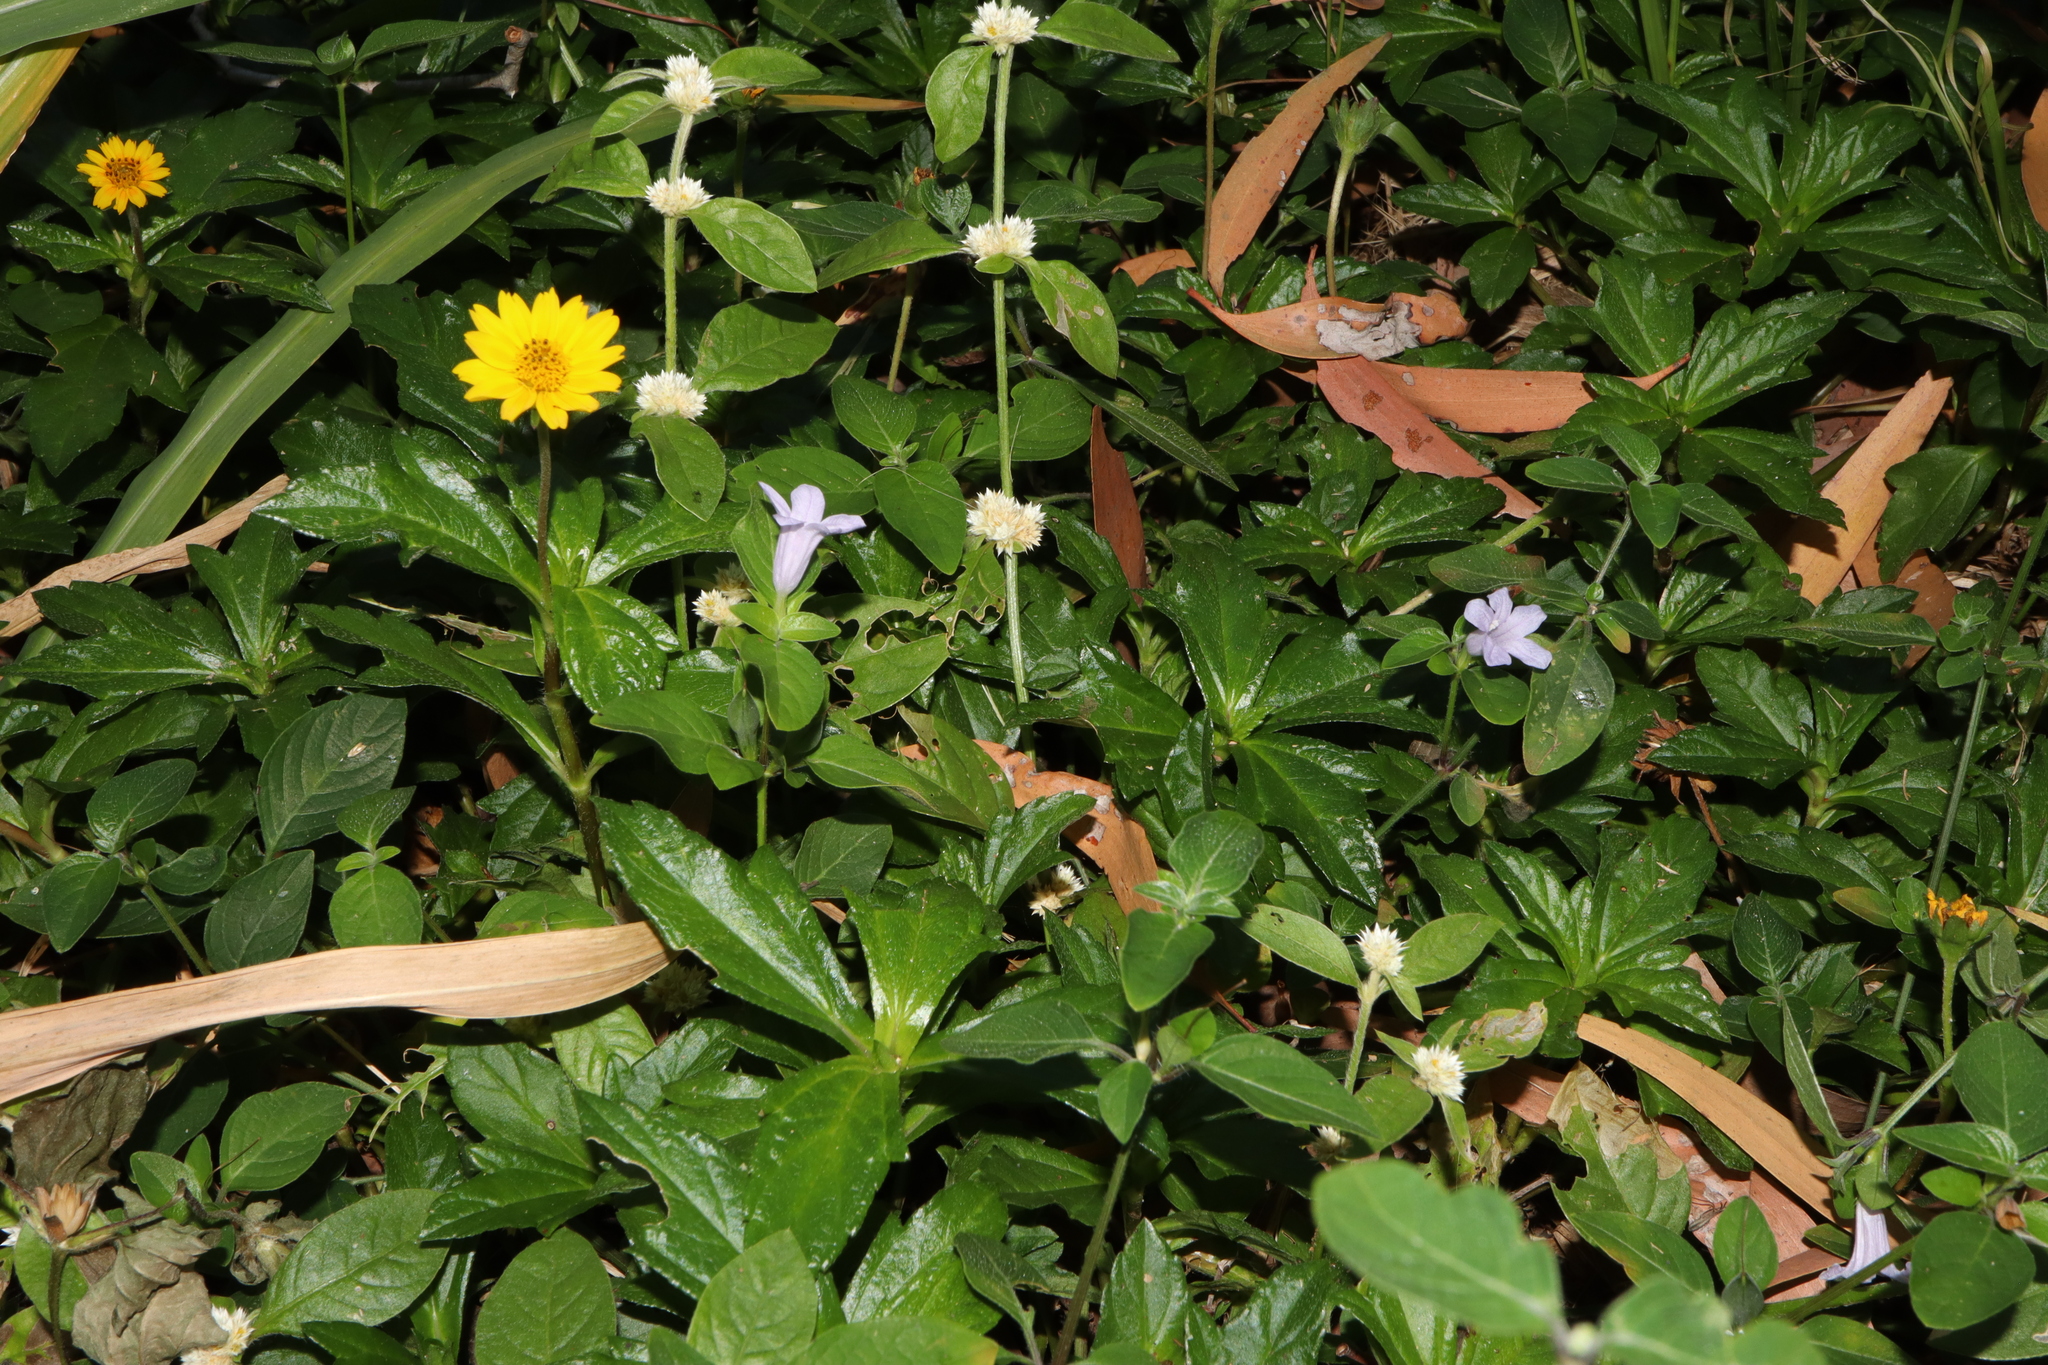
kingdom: Plantae
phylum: Tracheophyta
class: Magnoliopsida
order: Lamiales
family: Acanthaceae
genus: Ruellia
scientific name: Ruellia prostrata
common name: Prostrate wild petunia
